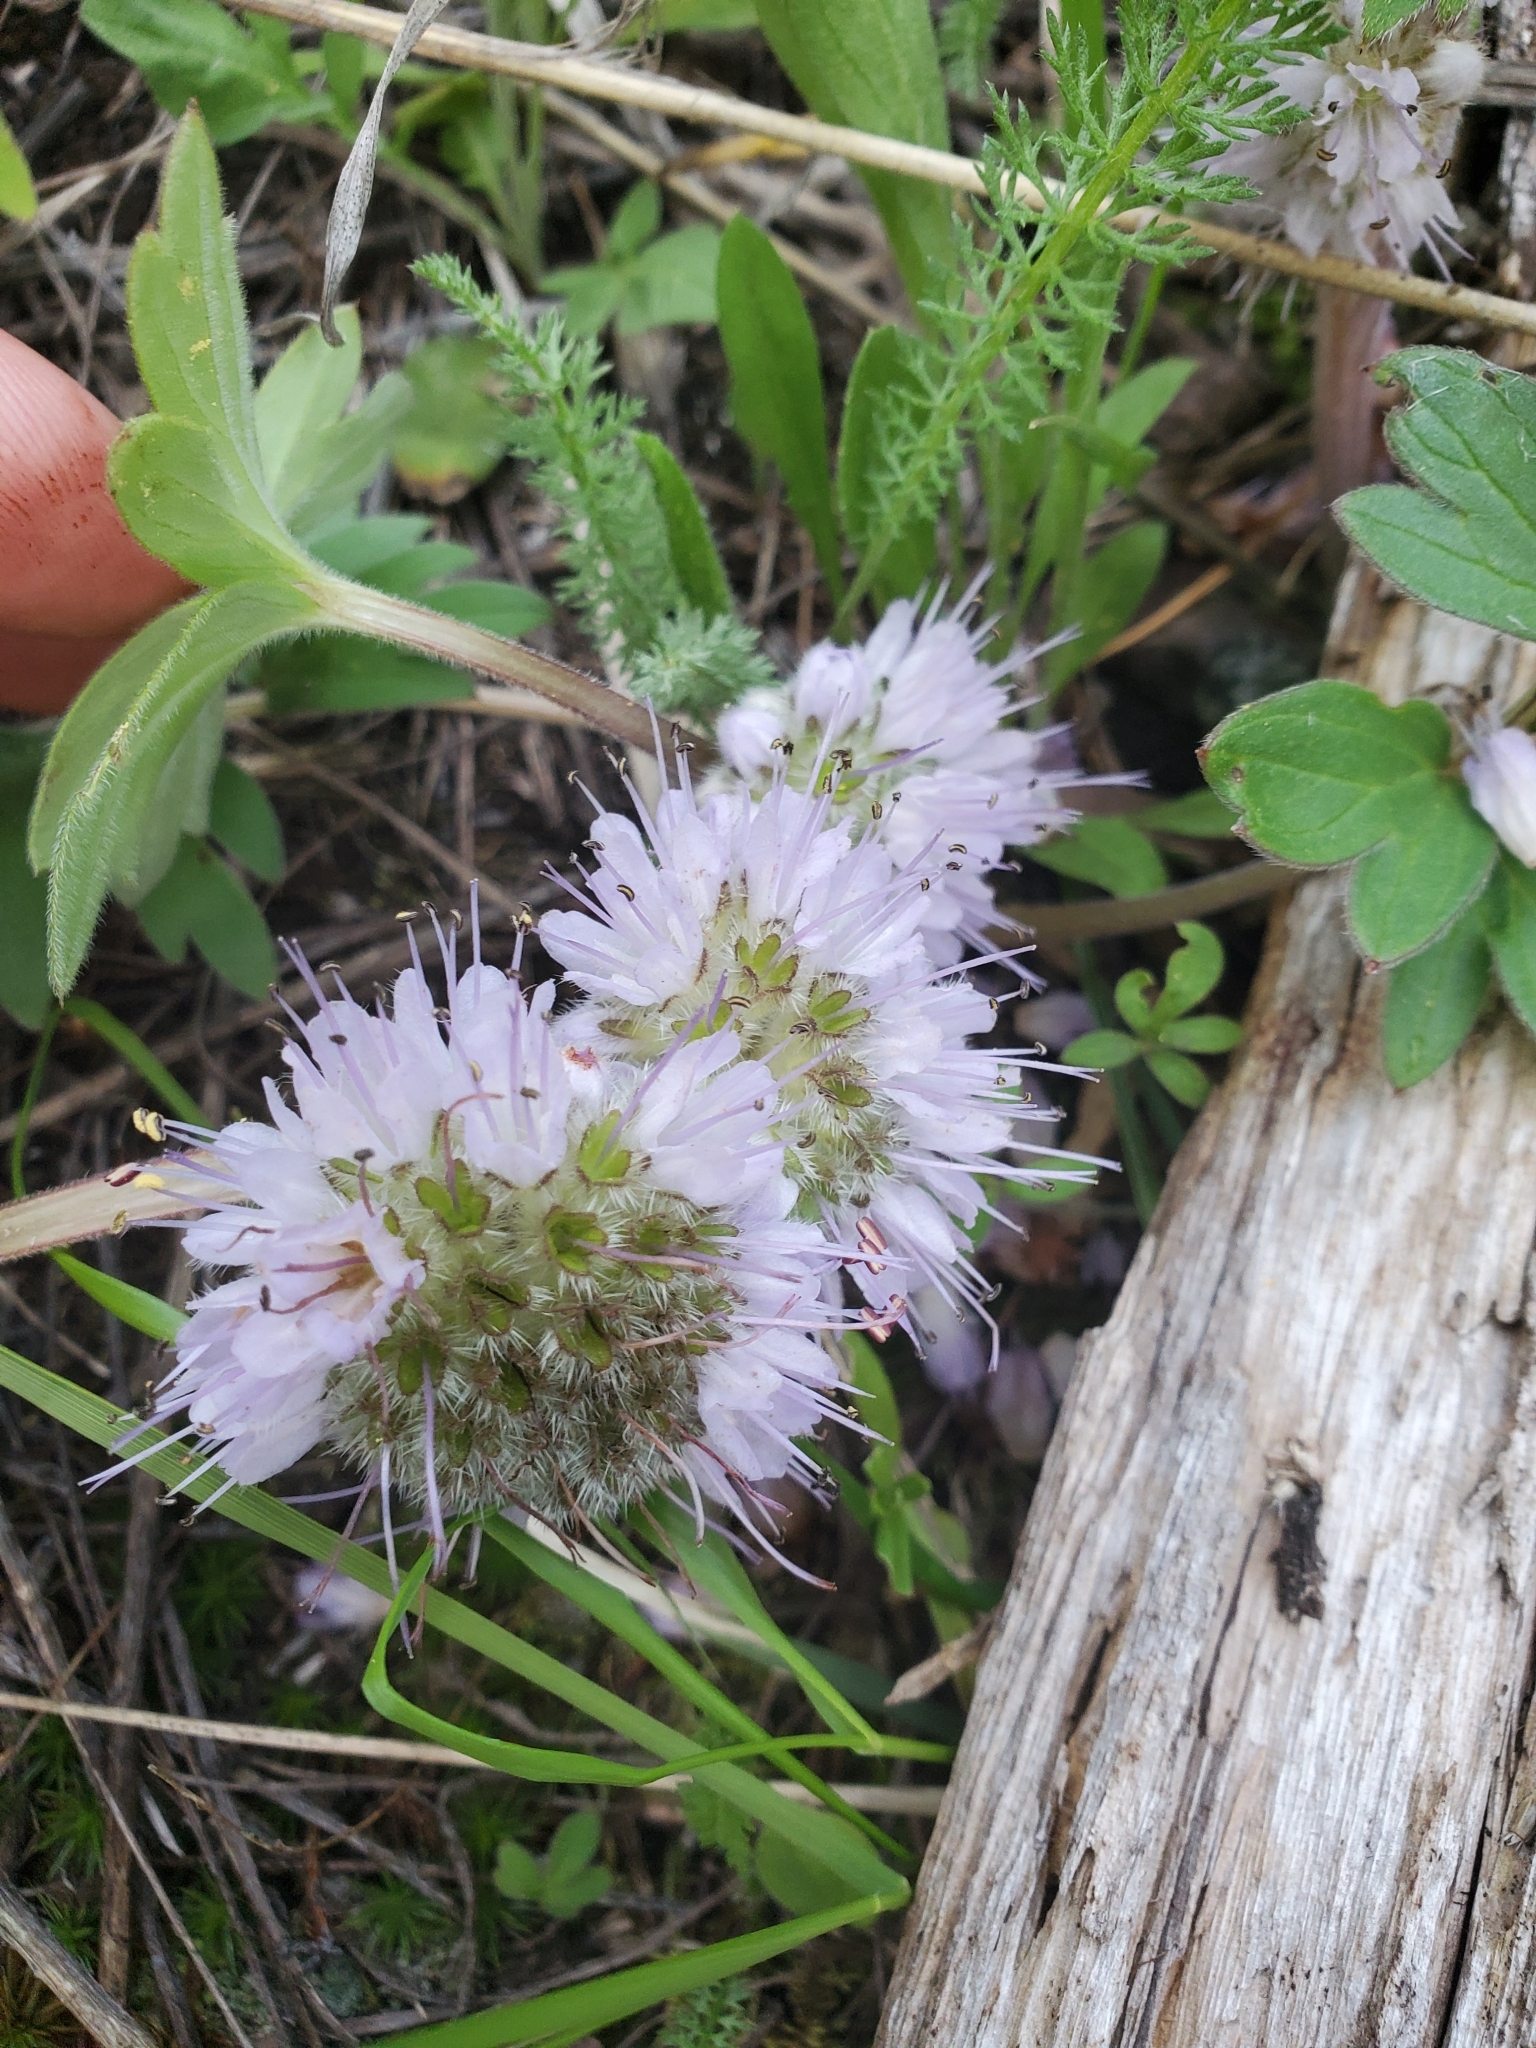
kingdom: Plantae
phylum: Tracheophyta
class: Magnoliopsida
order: Boraginales
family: Hydrophyllaceae
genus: Hydrophyllum
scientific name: Hydrophyllum capitatum
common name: Woollen-breeches
